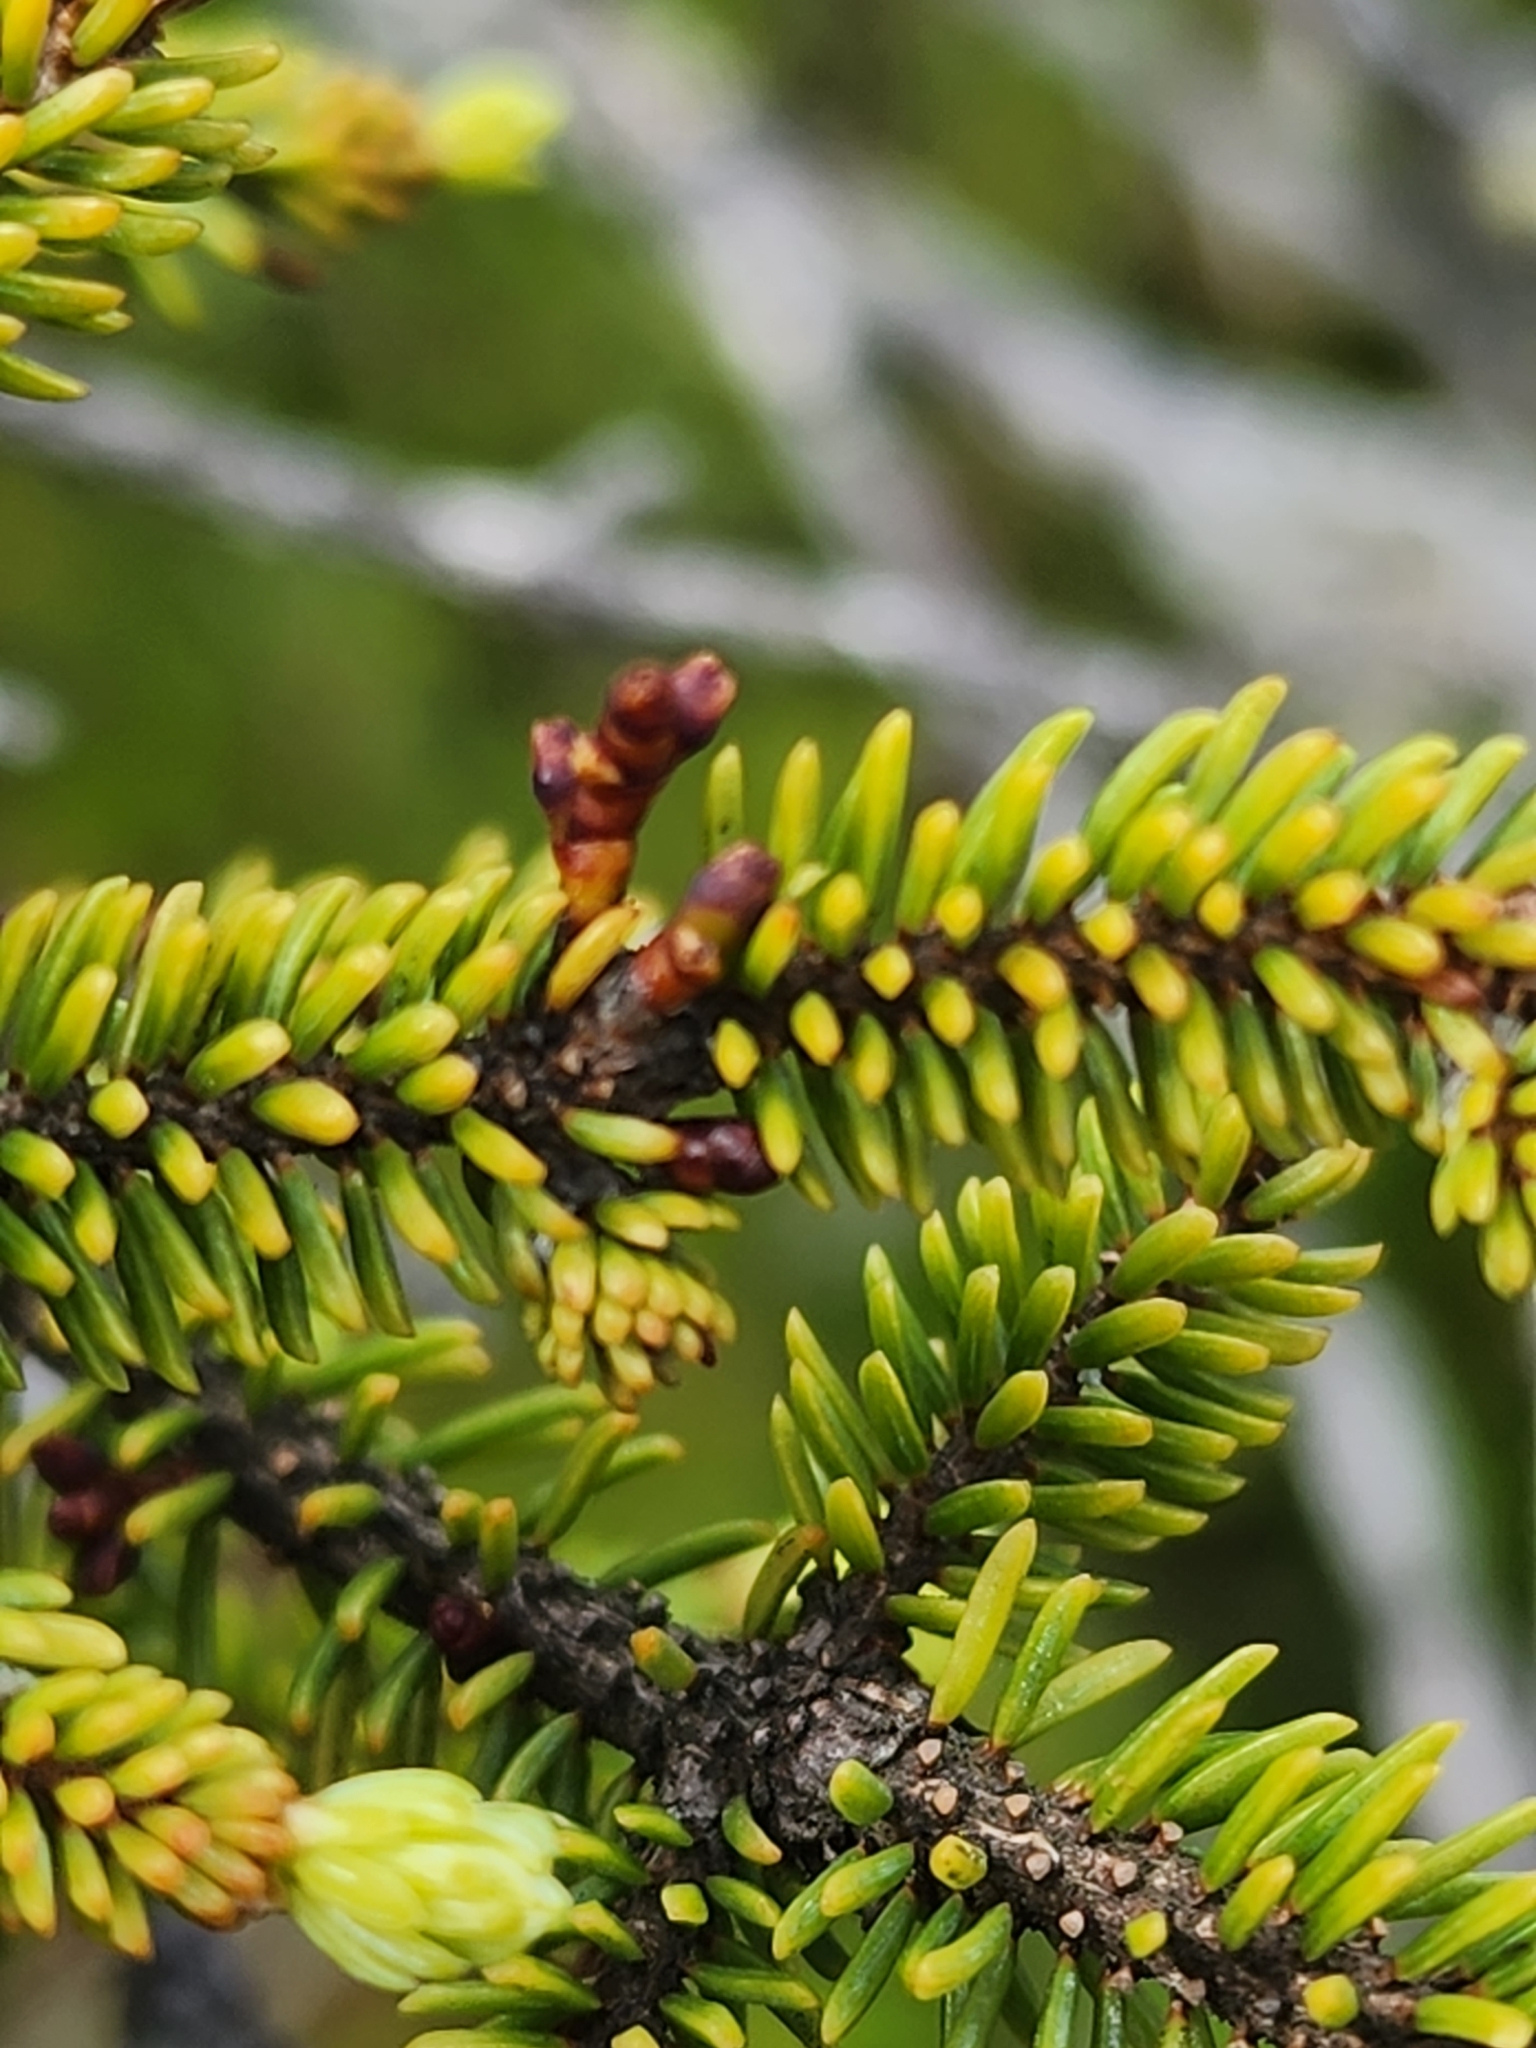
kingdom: Plantae
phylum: Tracheophyta
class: Magnoliopsida
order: Santalales
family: Viscaceae
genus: Arceuthobium
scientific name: Arceuthobium pusillum
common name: Dwarf-mistletoe
